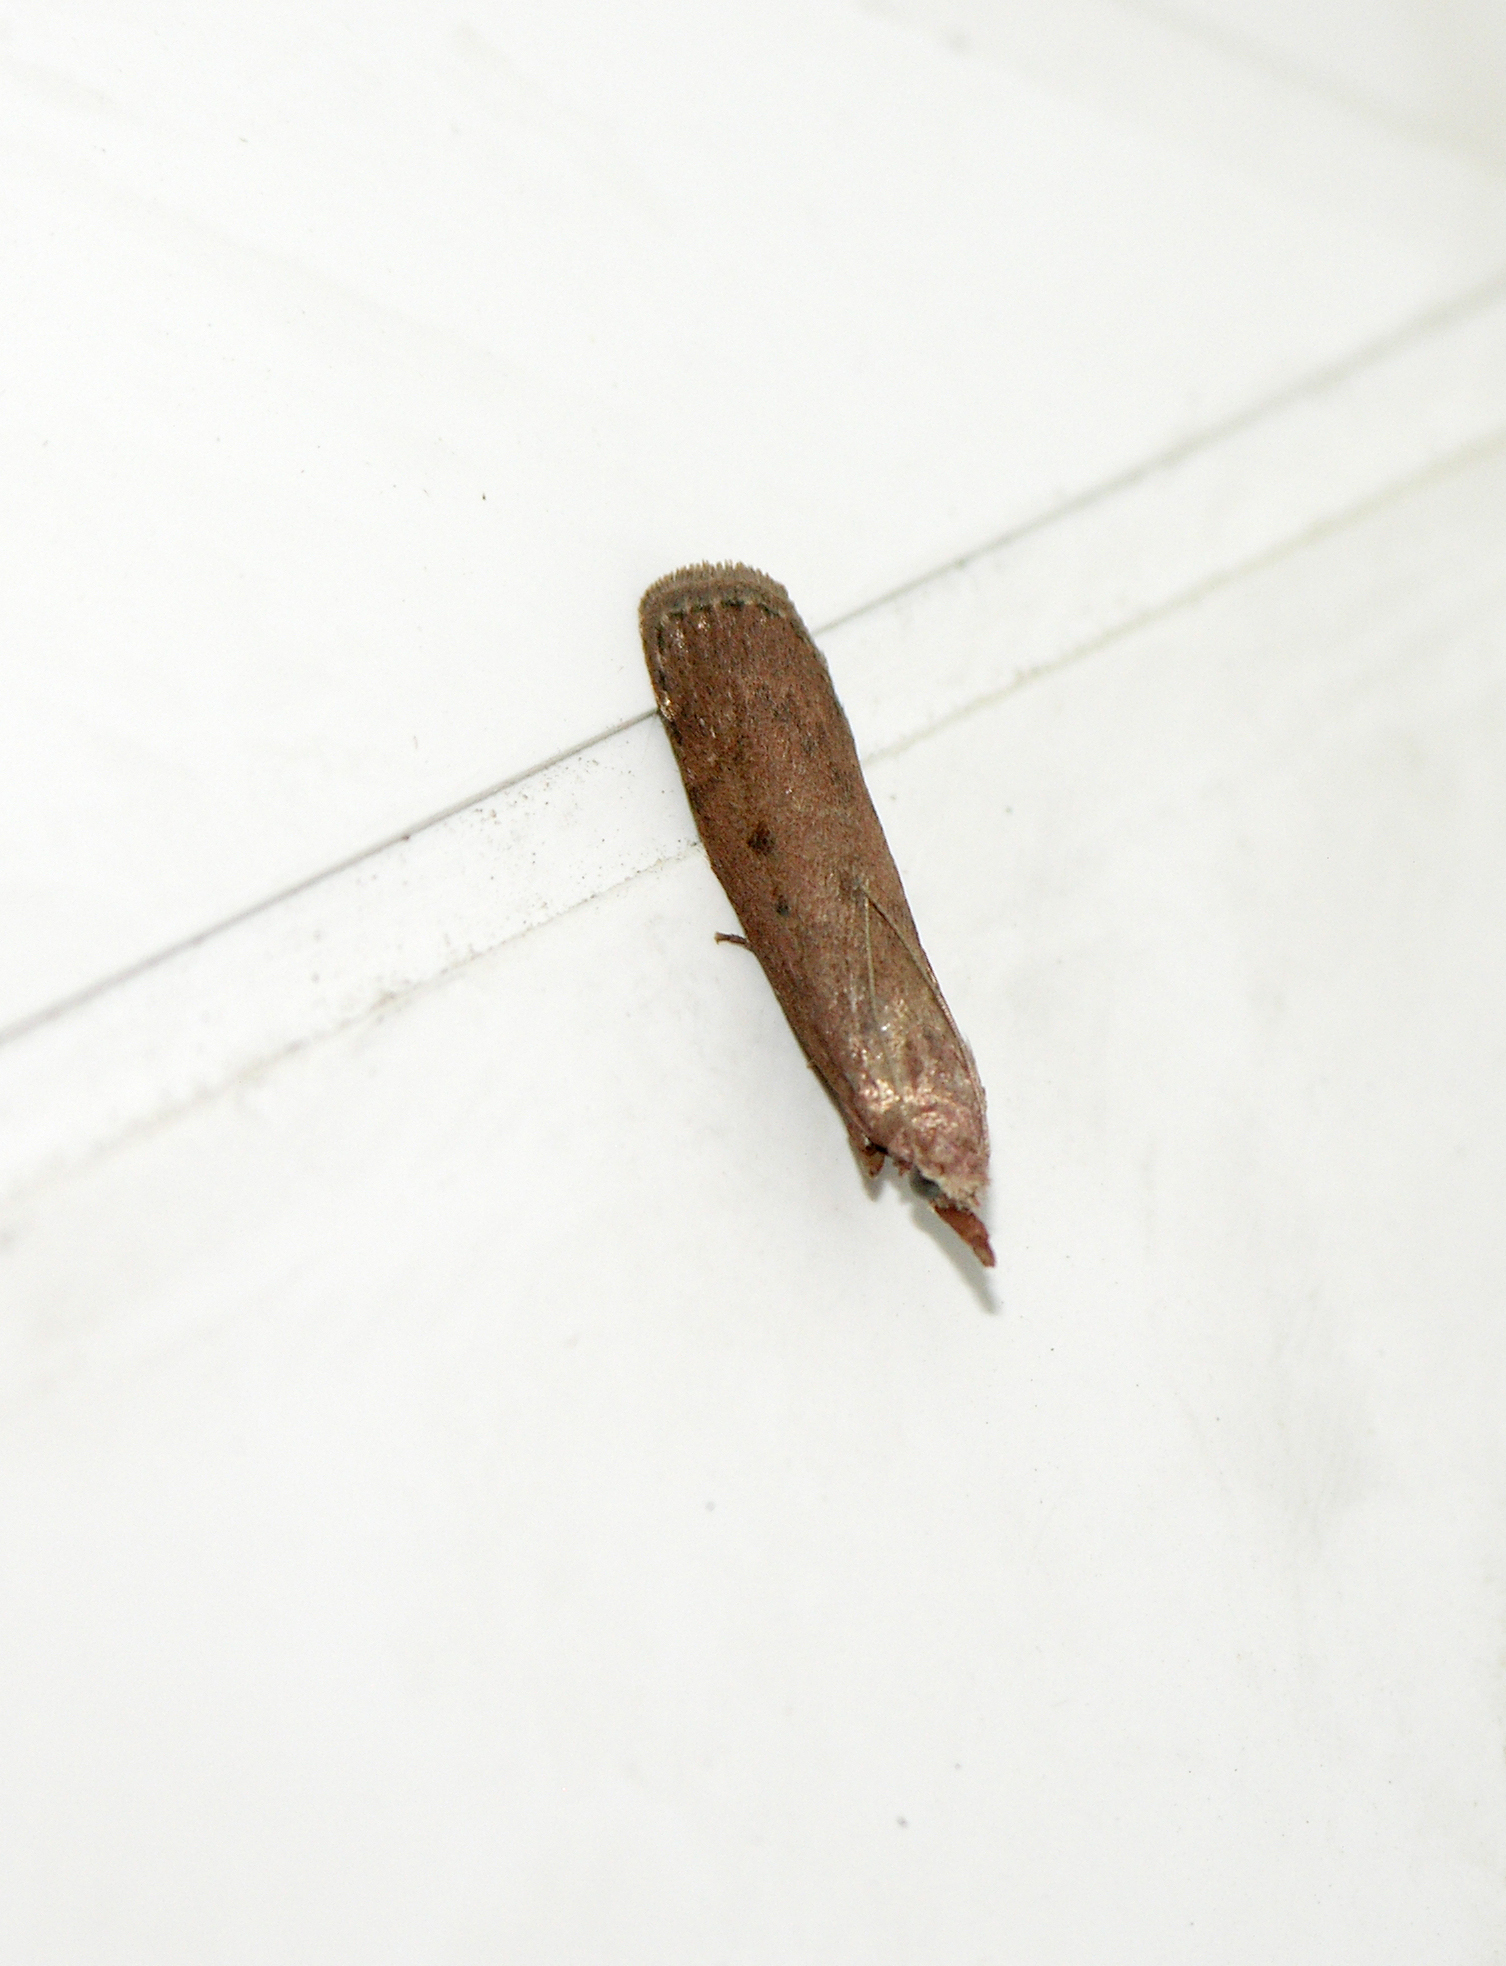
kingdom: Animalia
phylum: Arthropoda
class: Insecta
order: Lepidoptera
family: Pyralidae
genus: Aphomia
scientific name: Aphomia sociella
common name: Bee moth
